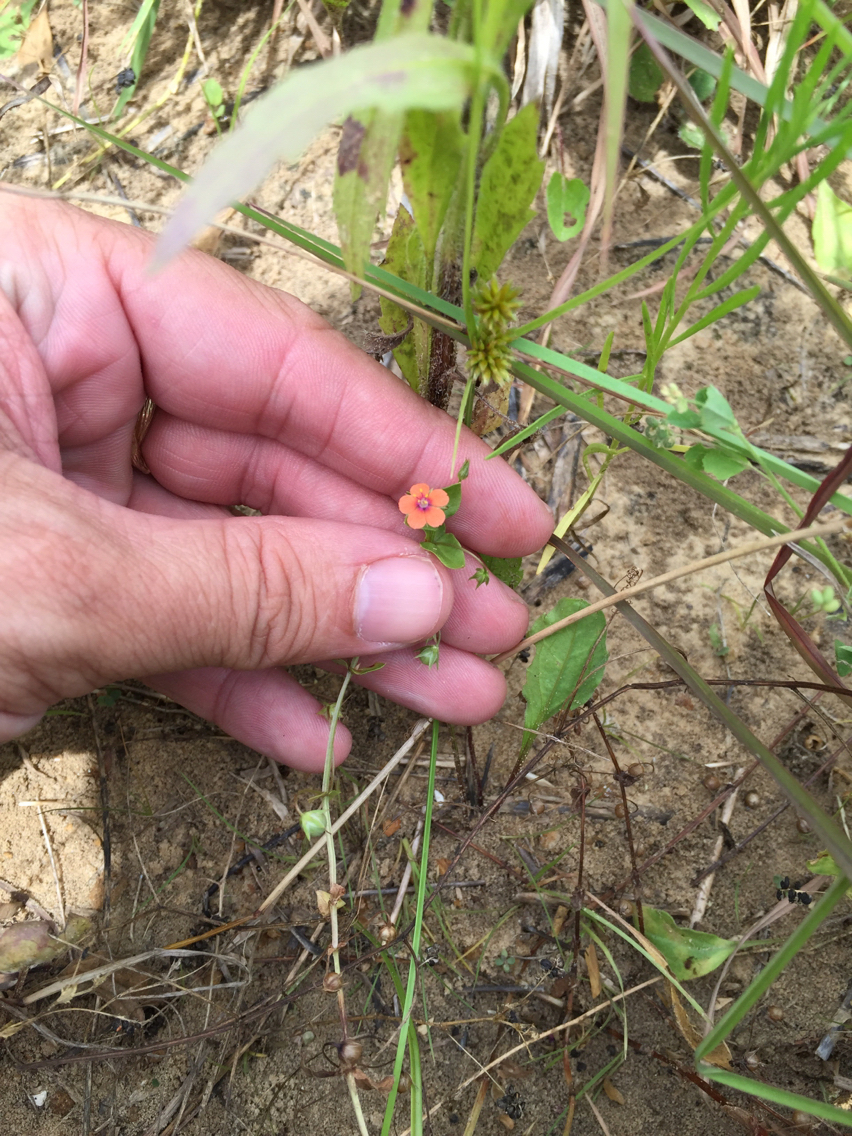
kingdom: Plantae
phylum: Tracheophyta
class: Magnoliopsida
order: Ericales
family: Primulaceae
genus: Lysimachia
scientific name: Lysimachia arvensis
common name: Scarlet pimpernel
